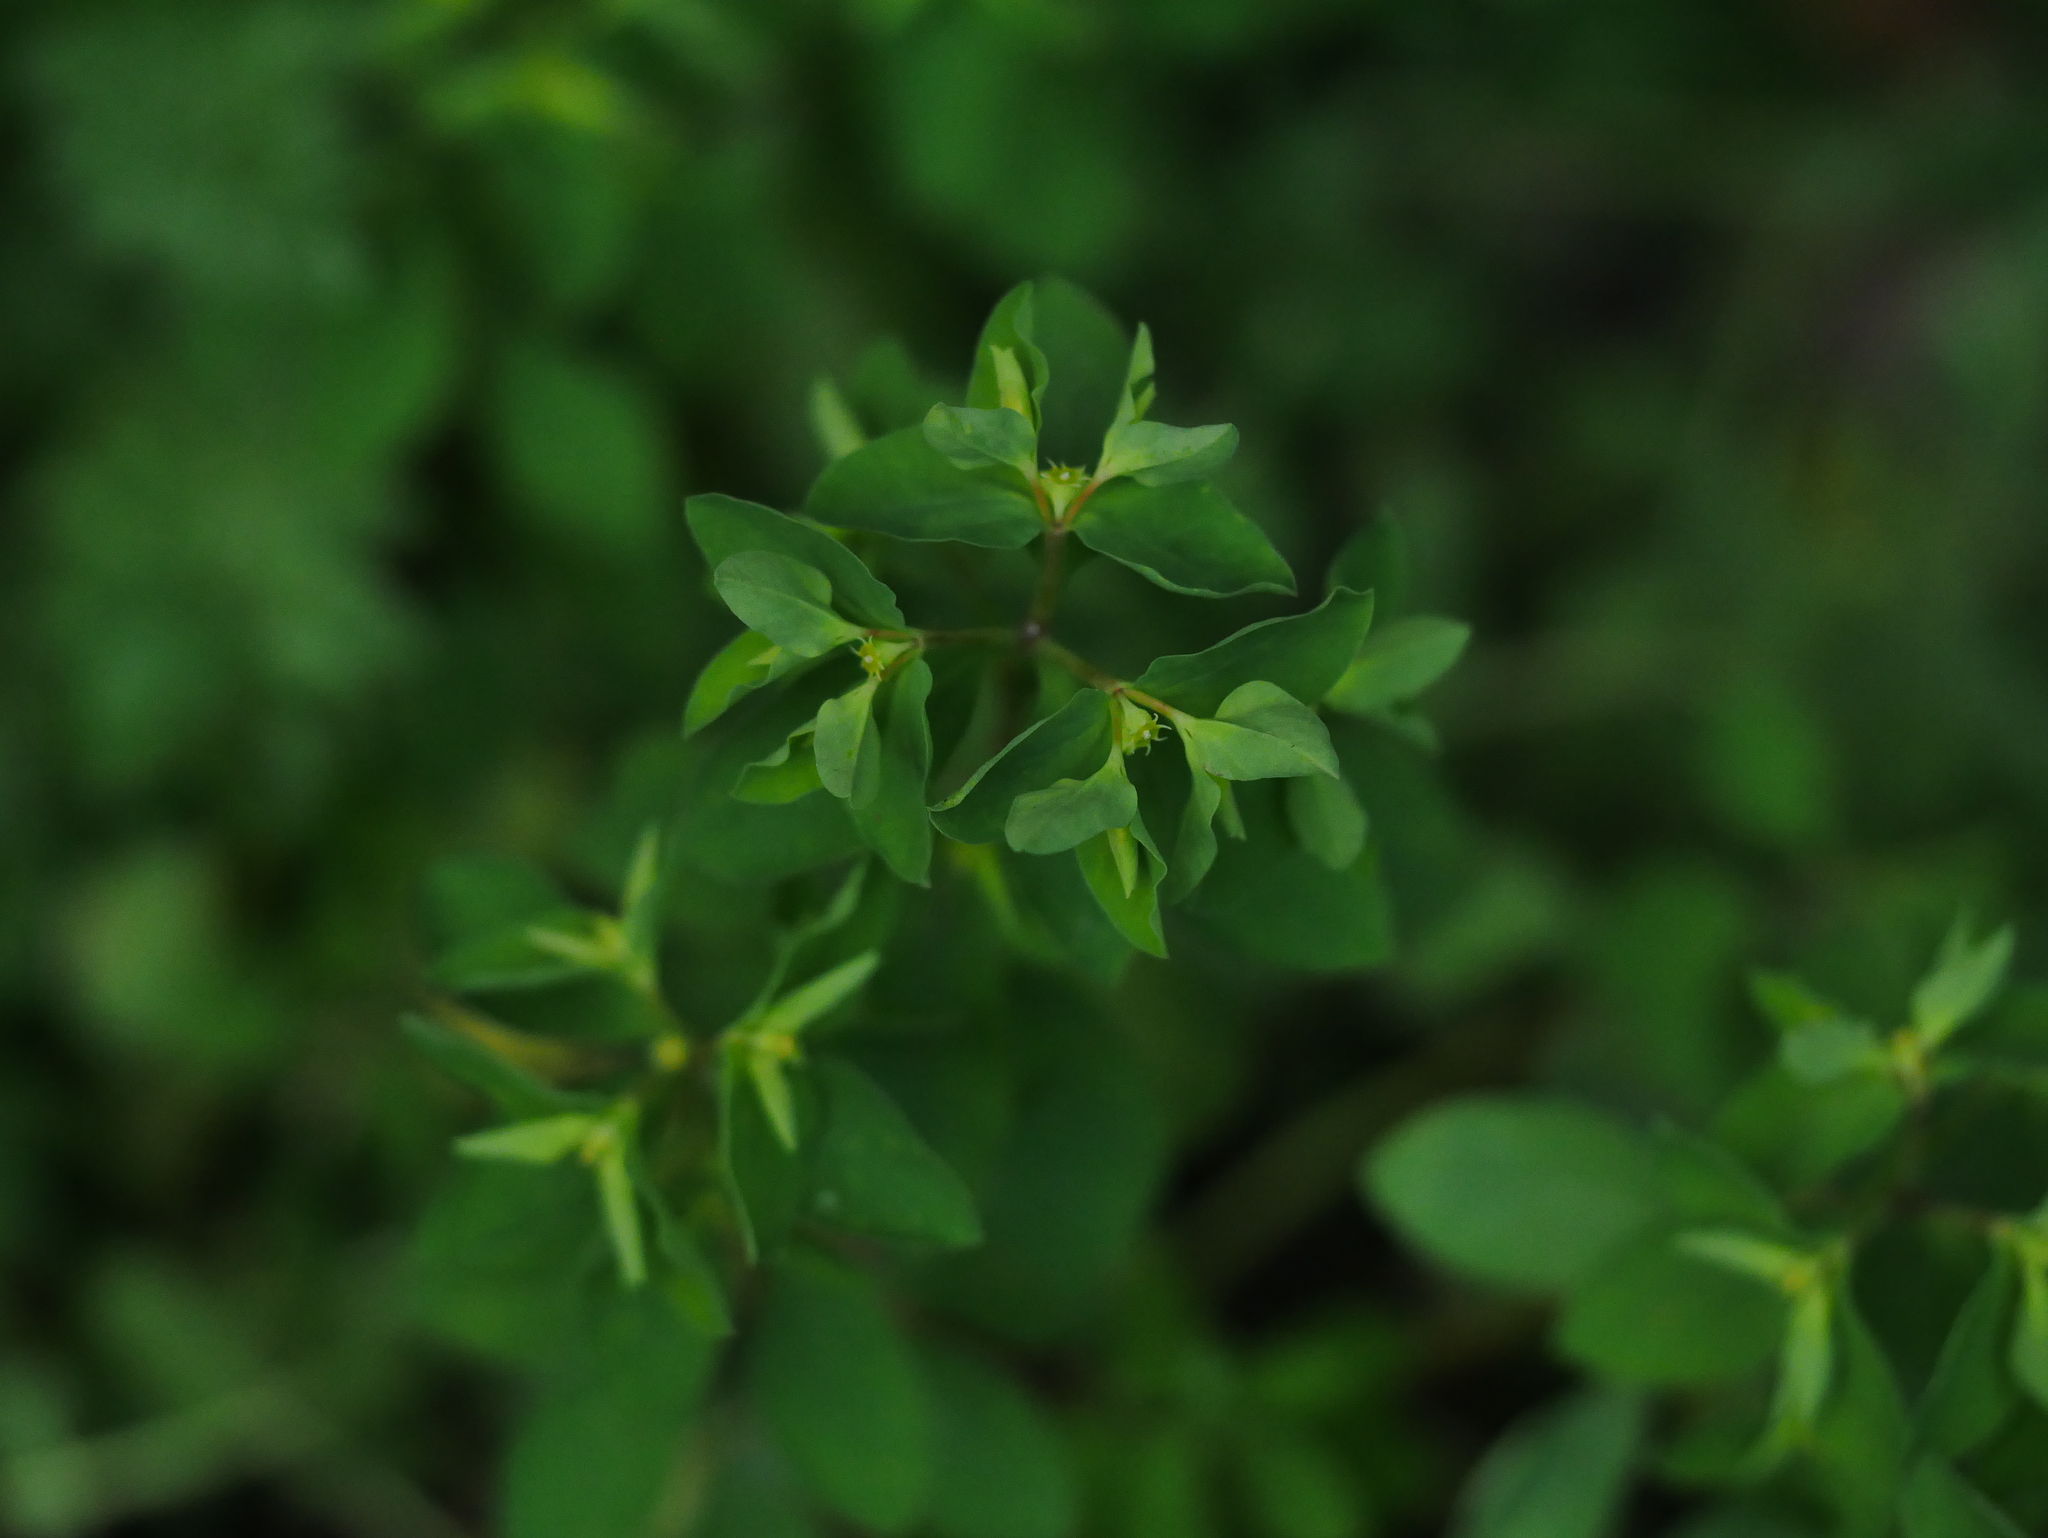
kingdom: Plantae
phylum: Tracheophyta
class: Magnoliopsida
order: Malpighiales
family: Euphorbiaceae
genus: Euphorbia
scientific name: Euphorbia peplus
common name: Petty spurge
